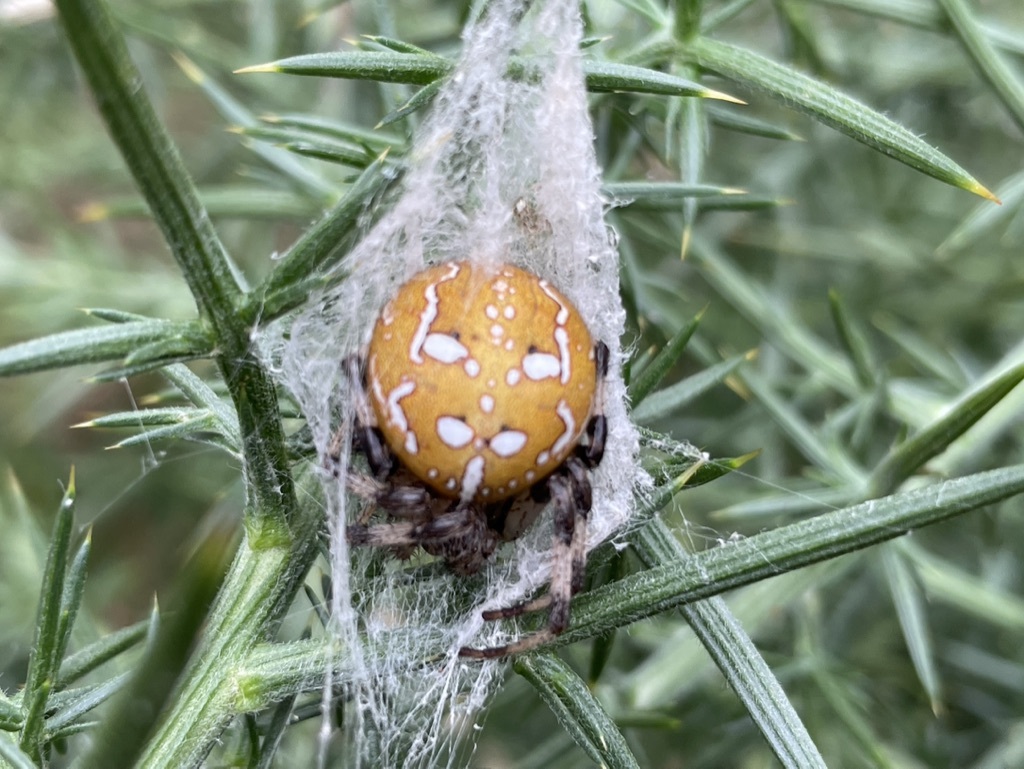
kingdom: Animalia
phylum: Arthropoda
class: Arachnida
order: Araneae
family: Araneidae
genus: Araneus
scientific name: Araneus quadratus
